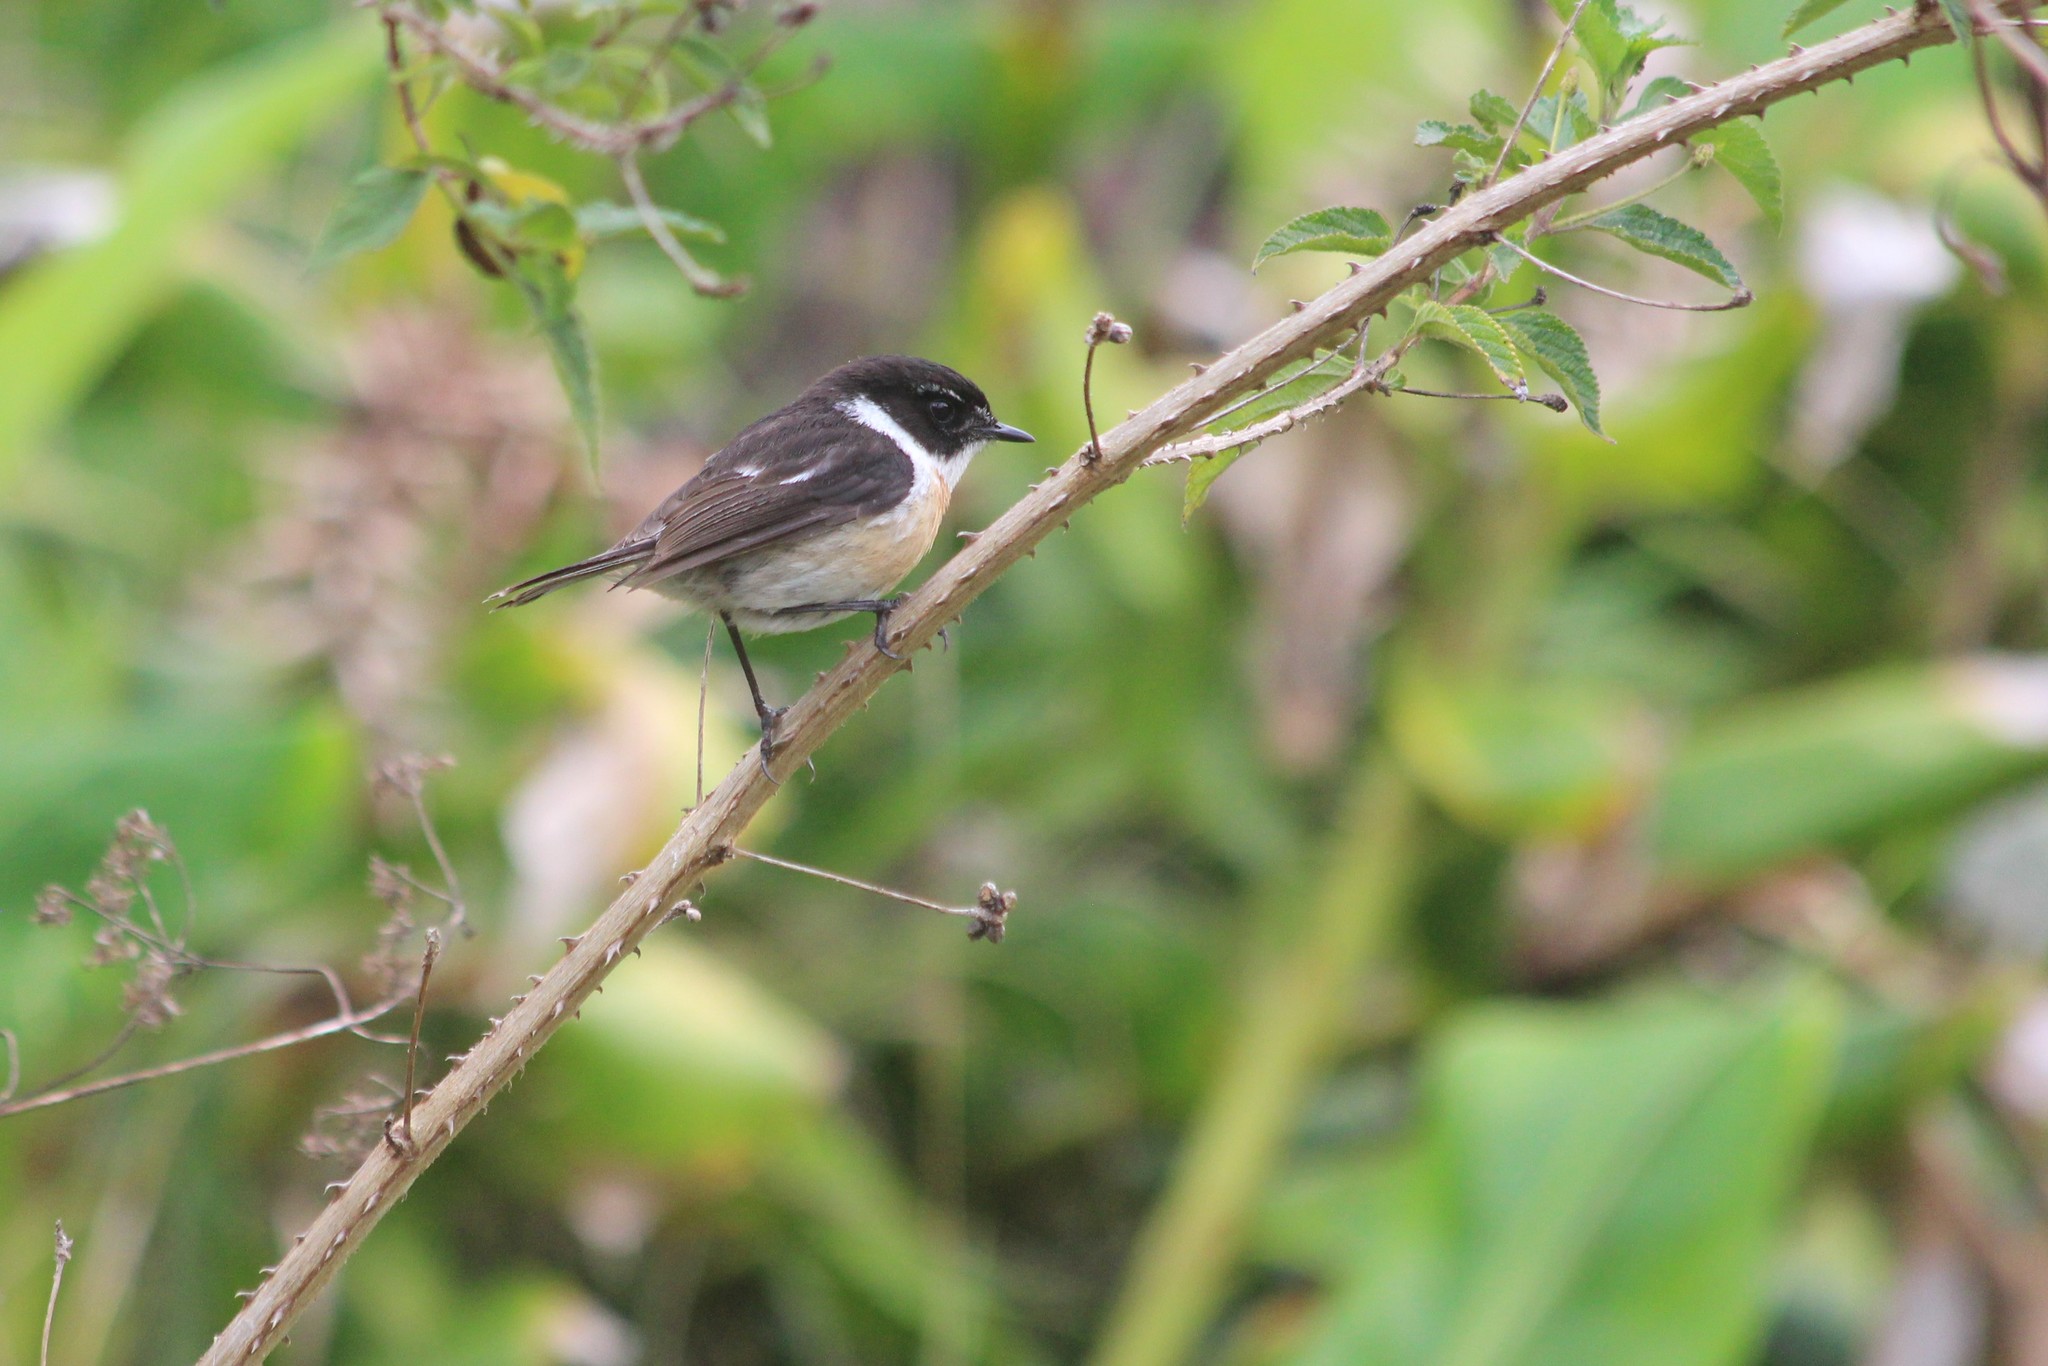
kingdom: Animalia
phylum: Chordata
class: Aves
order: Passeriformes
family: Muscicapidae
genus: Saxicola
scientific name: Saxicola tectes
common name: Reunion stonechat
